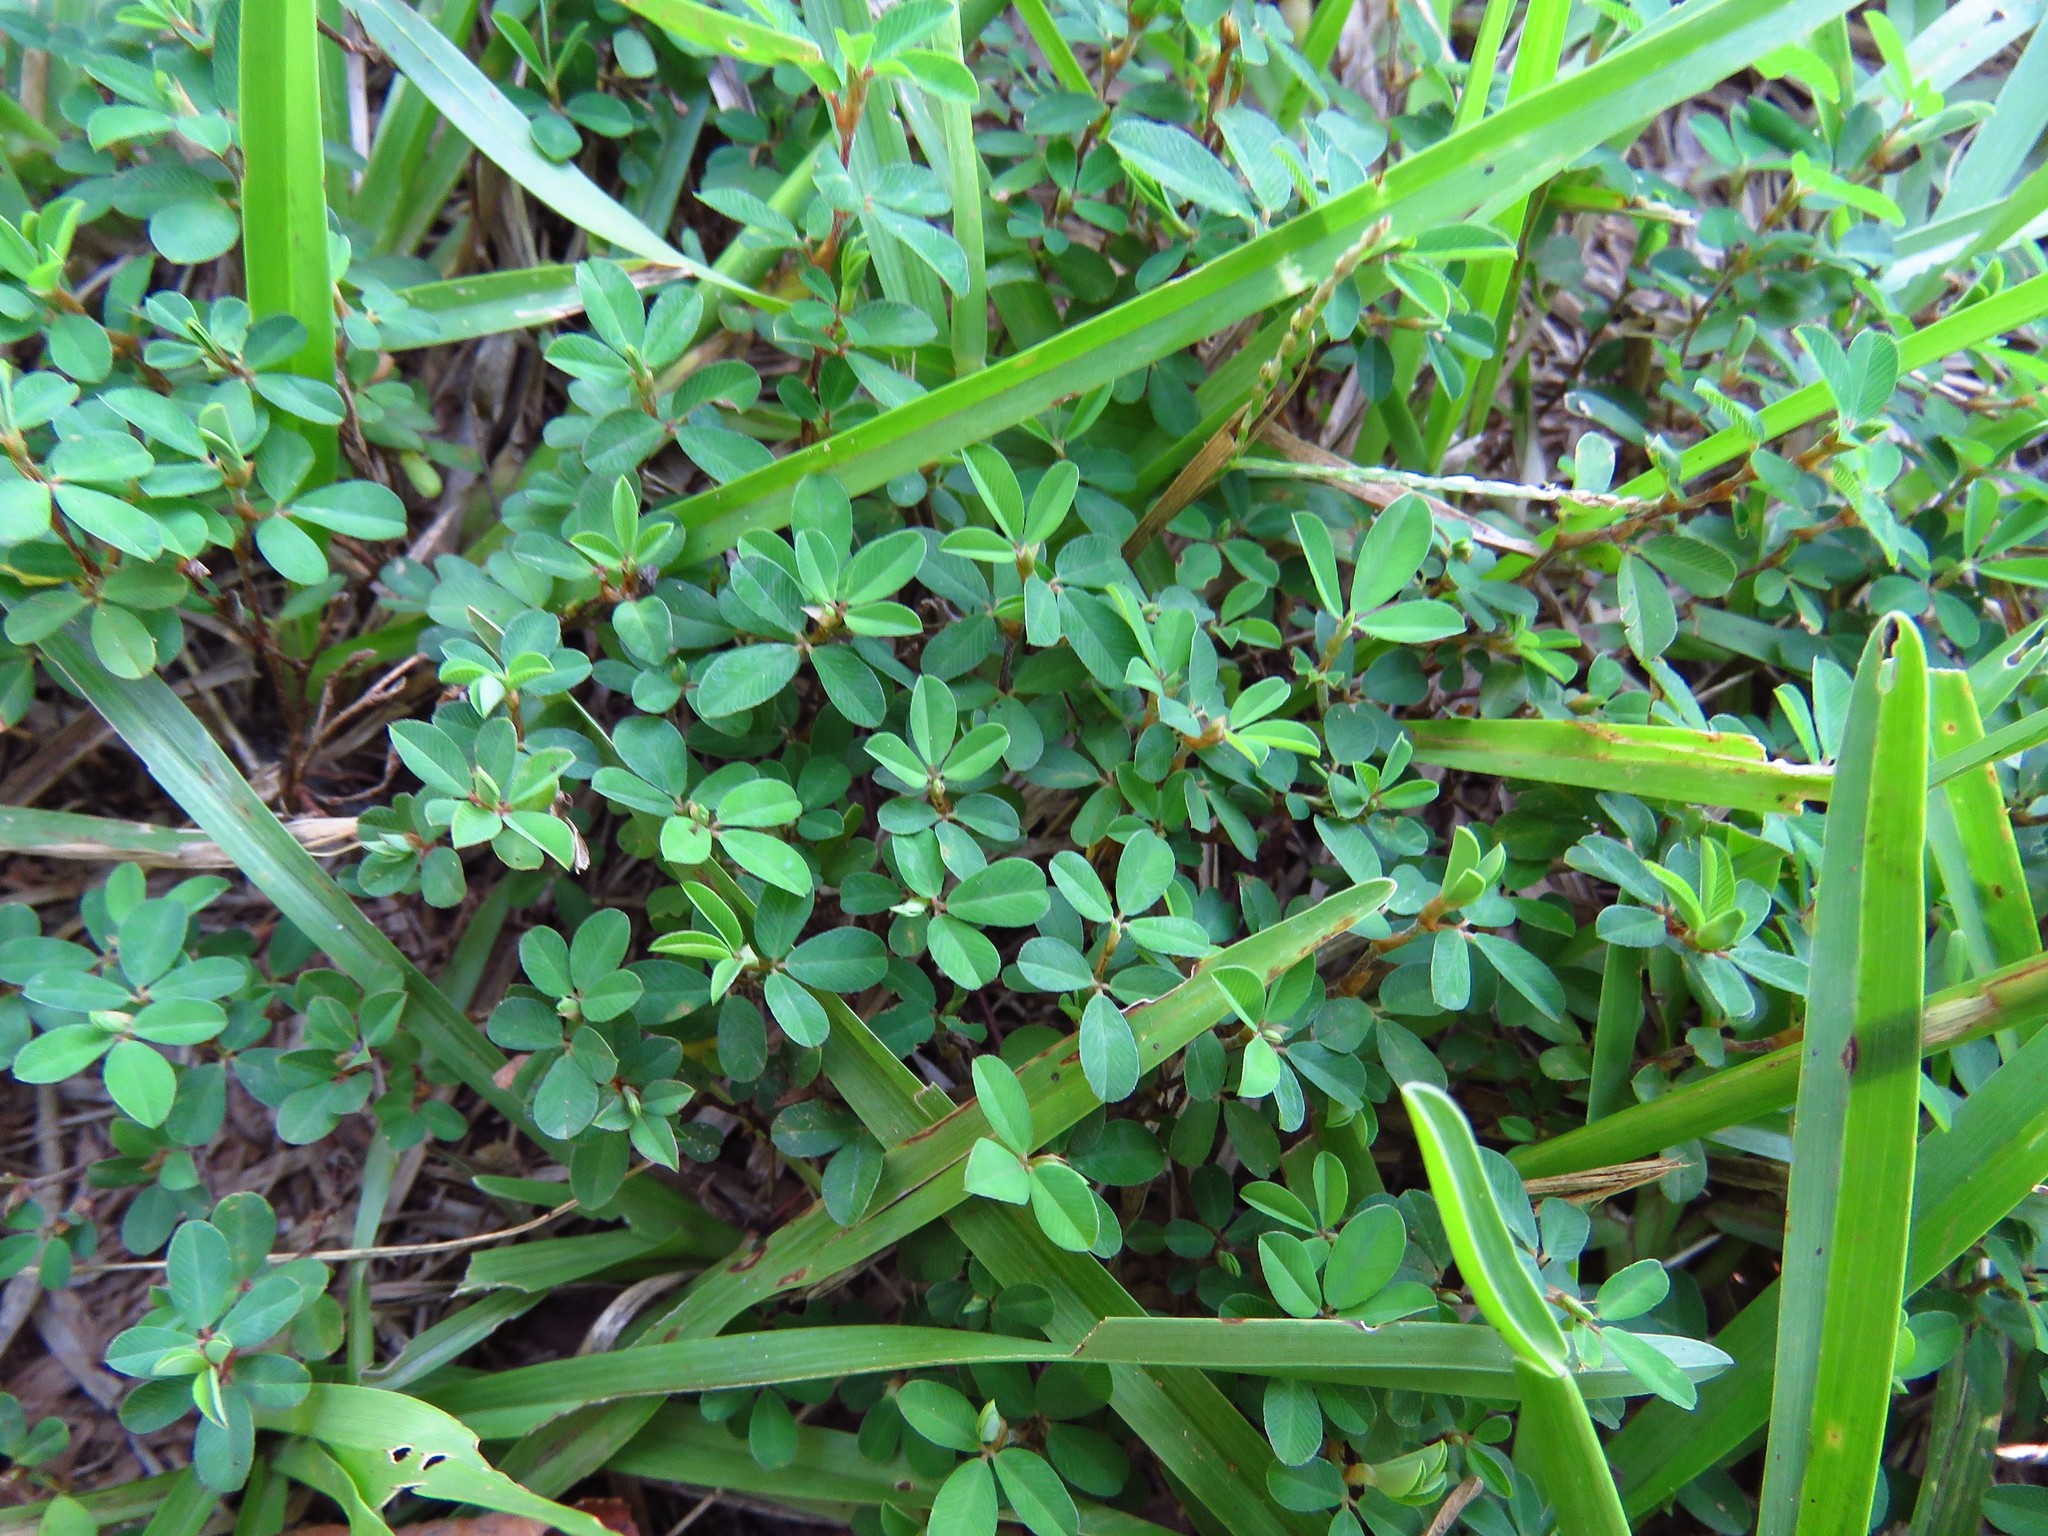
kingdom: Plantae
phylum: Tracheophyta
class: Magnoliopsida
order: Fabales
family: Fabaceae
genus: Kummerowia
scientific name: Kummerowia striata
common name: Japanese clover
